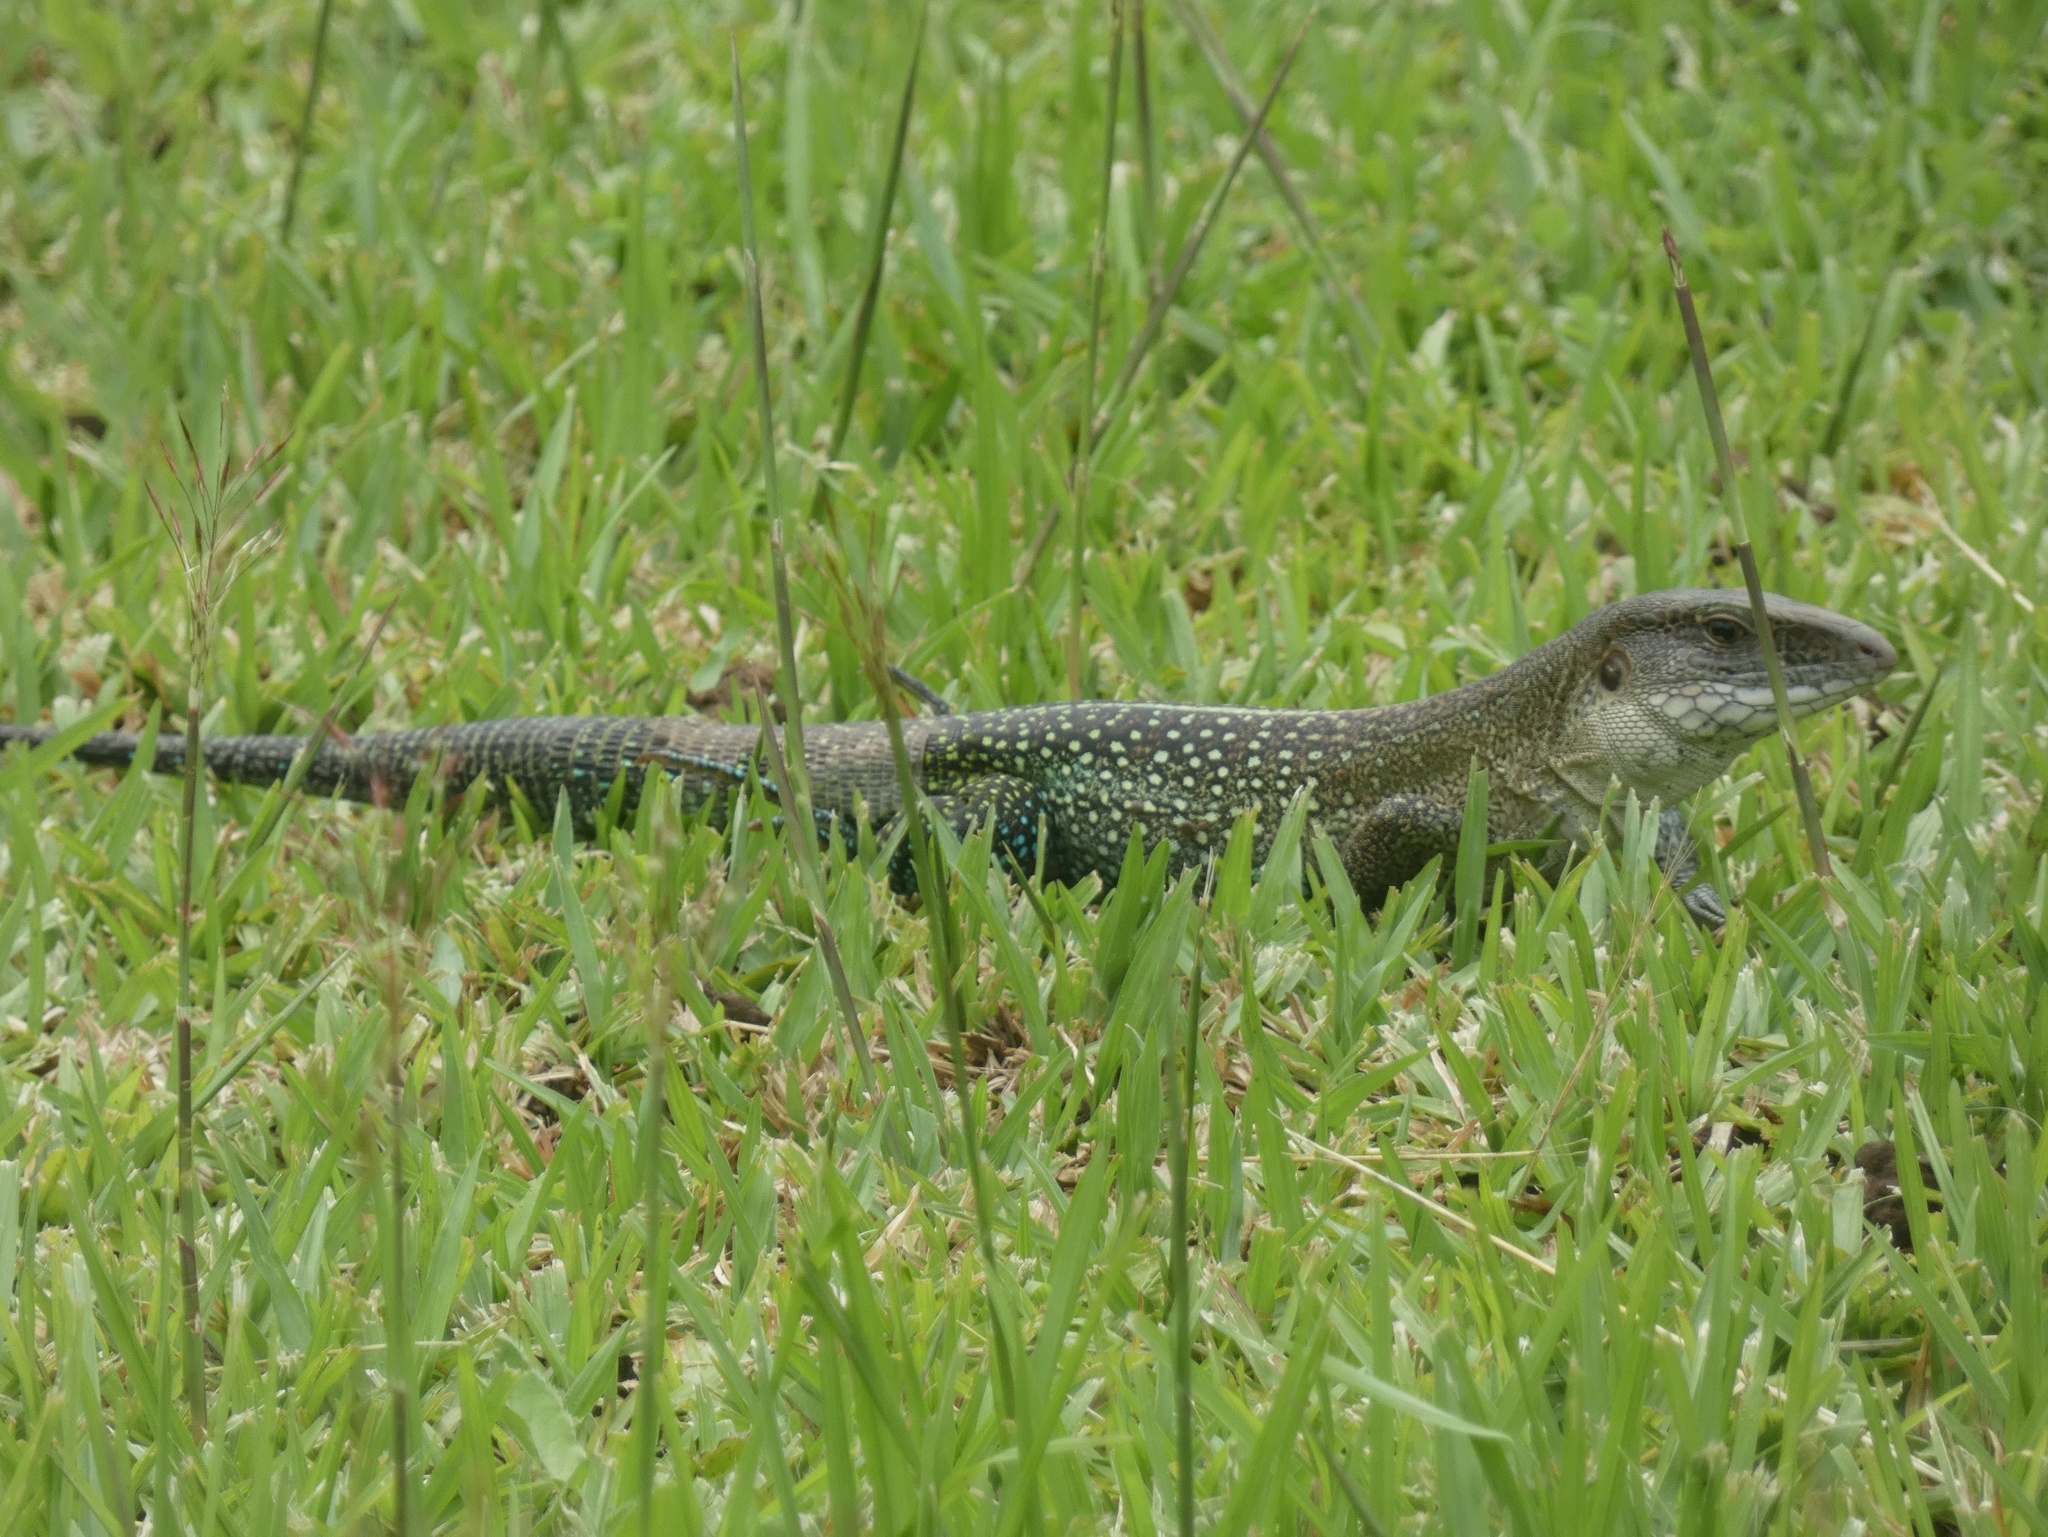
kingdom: Animalia
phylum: Chordata
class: Squamata
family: Teiidae
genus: Ameiva
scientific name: Ameiva praesignis
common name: Giant ameiva
